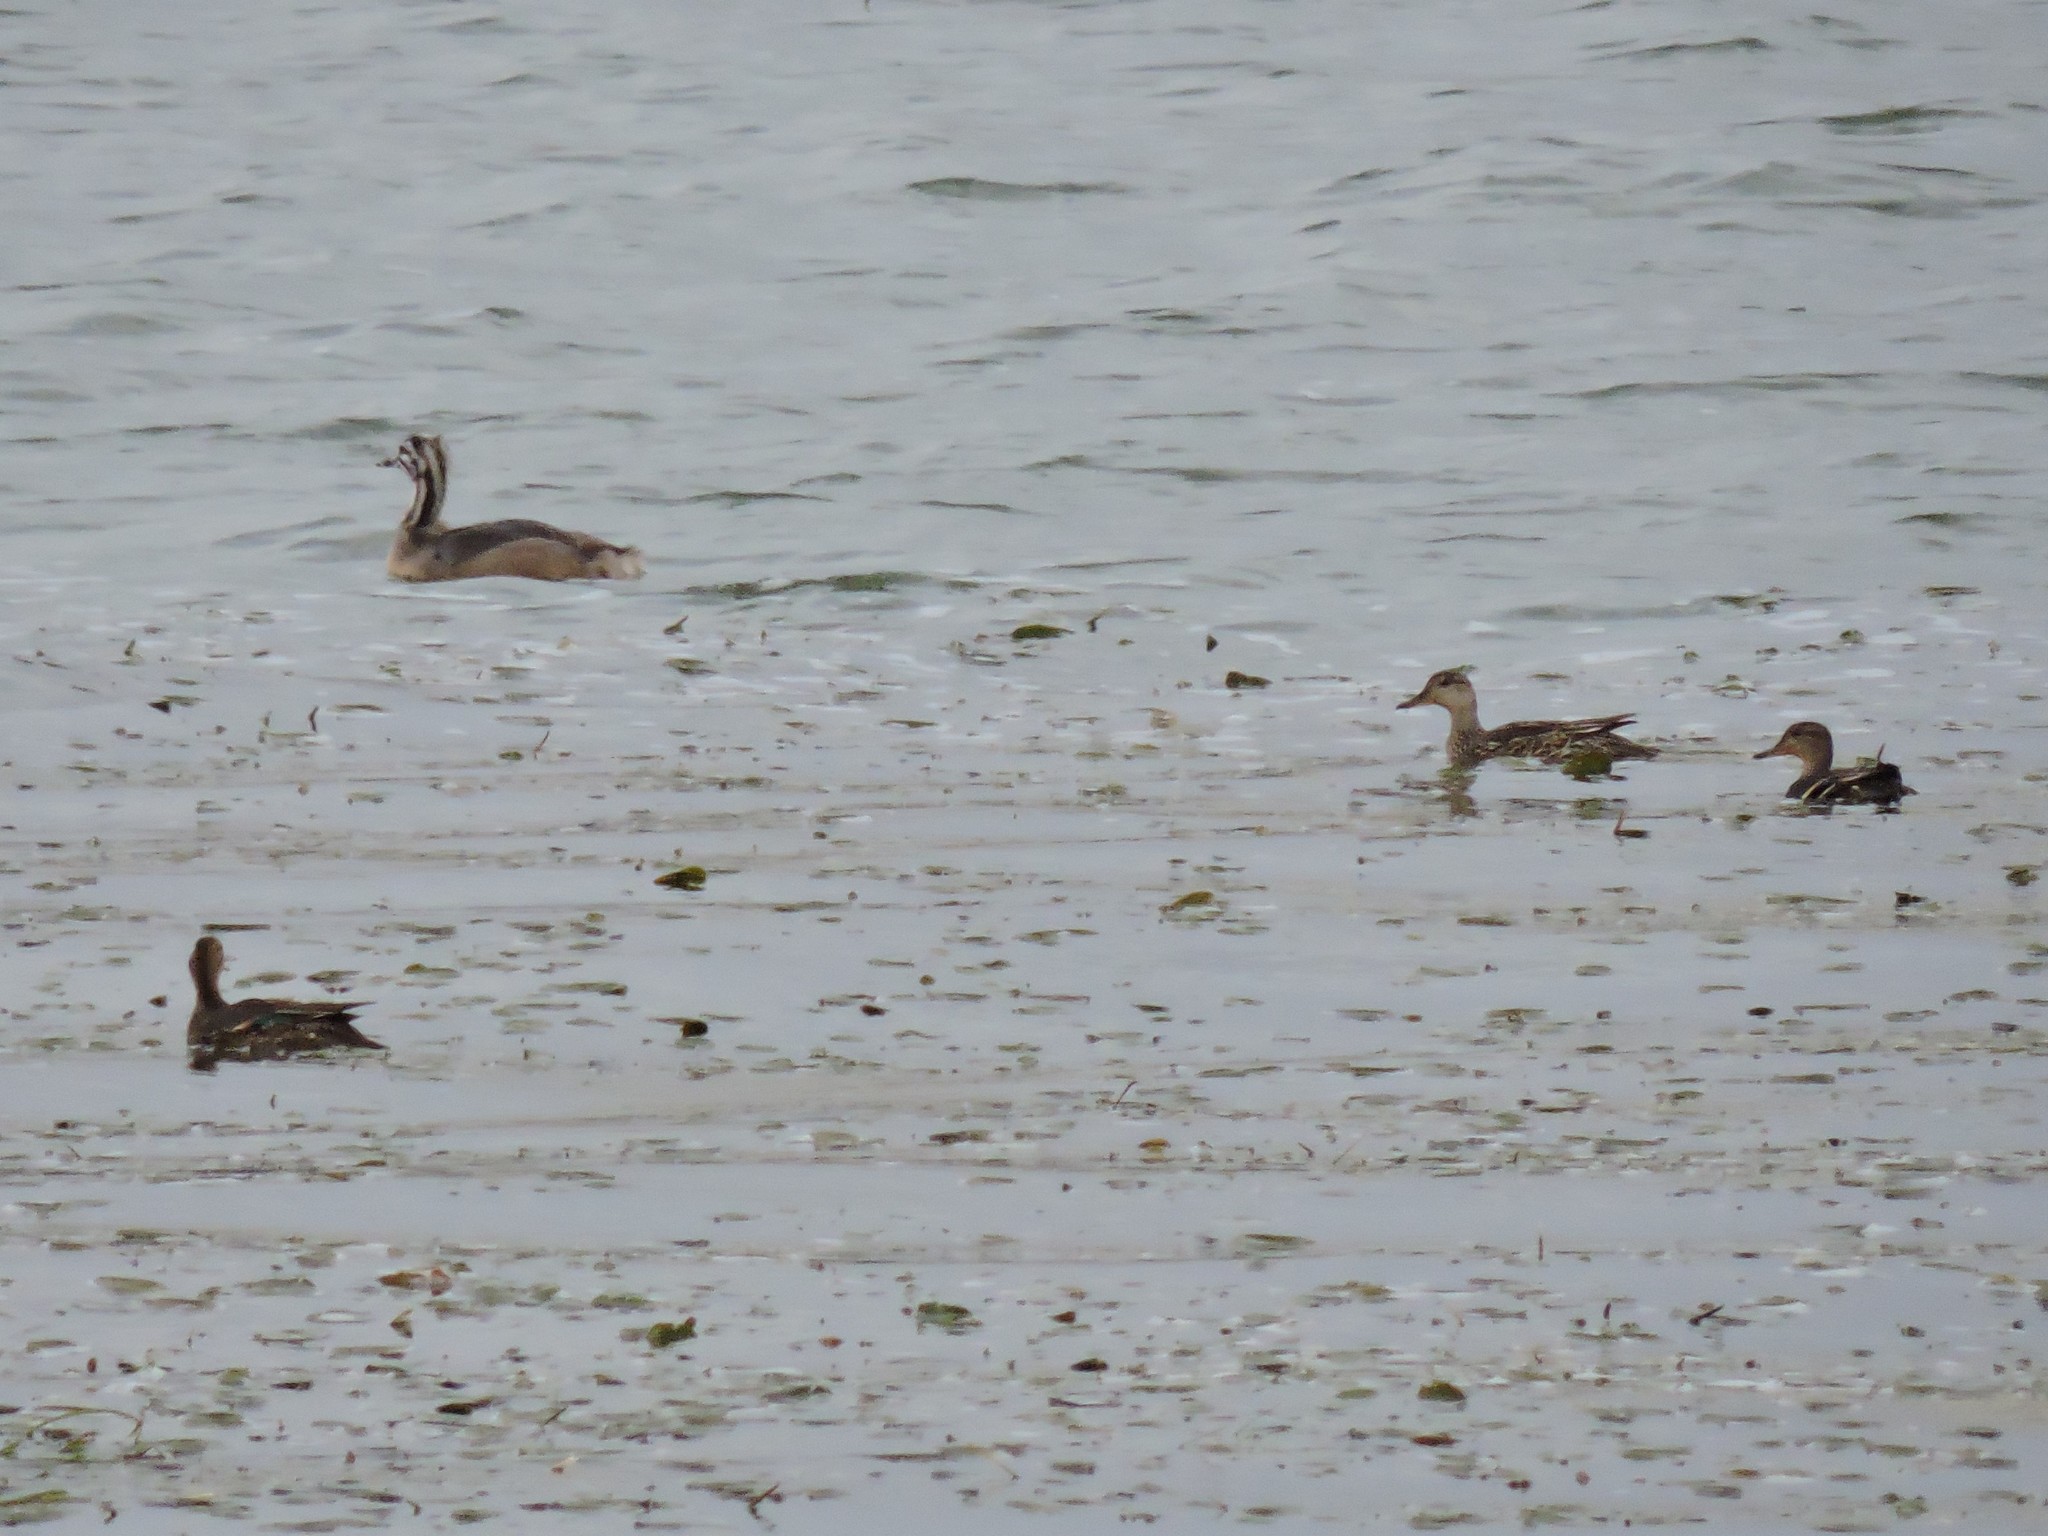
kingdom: Animalia
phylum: Chordata
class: Aves
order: Podicipediformes
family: Podicipedidae
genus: Podiceps
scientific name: Podiceps cristatus
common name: Great crested grebe
